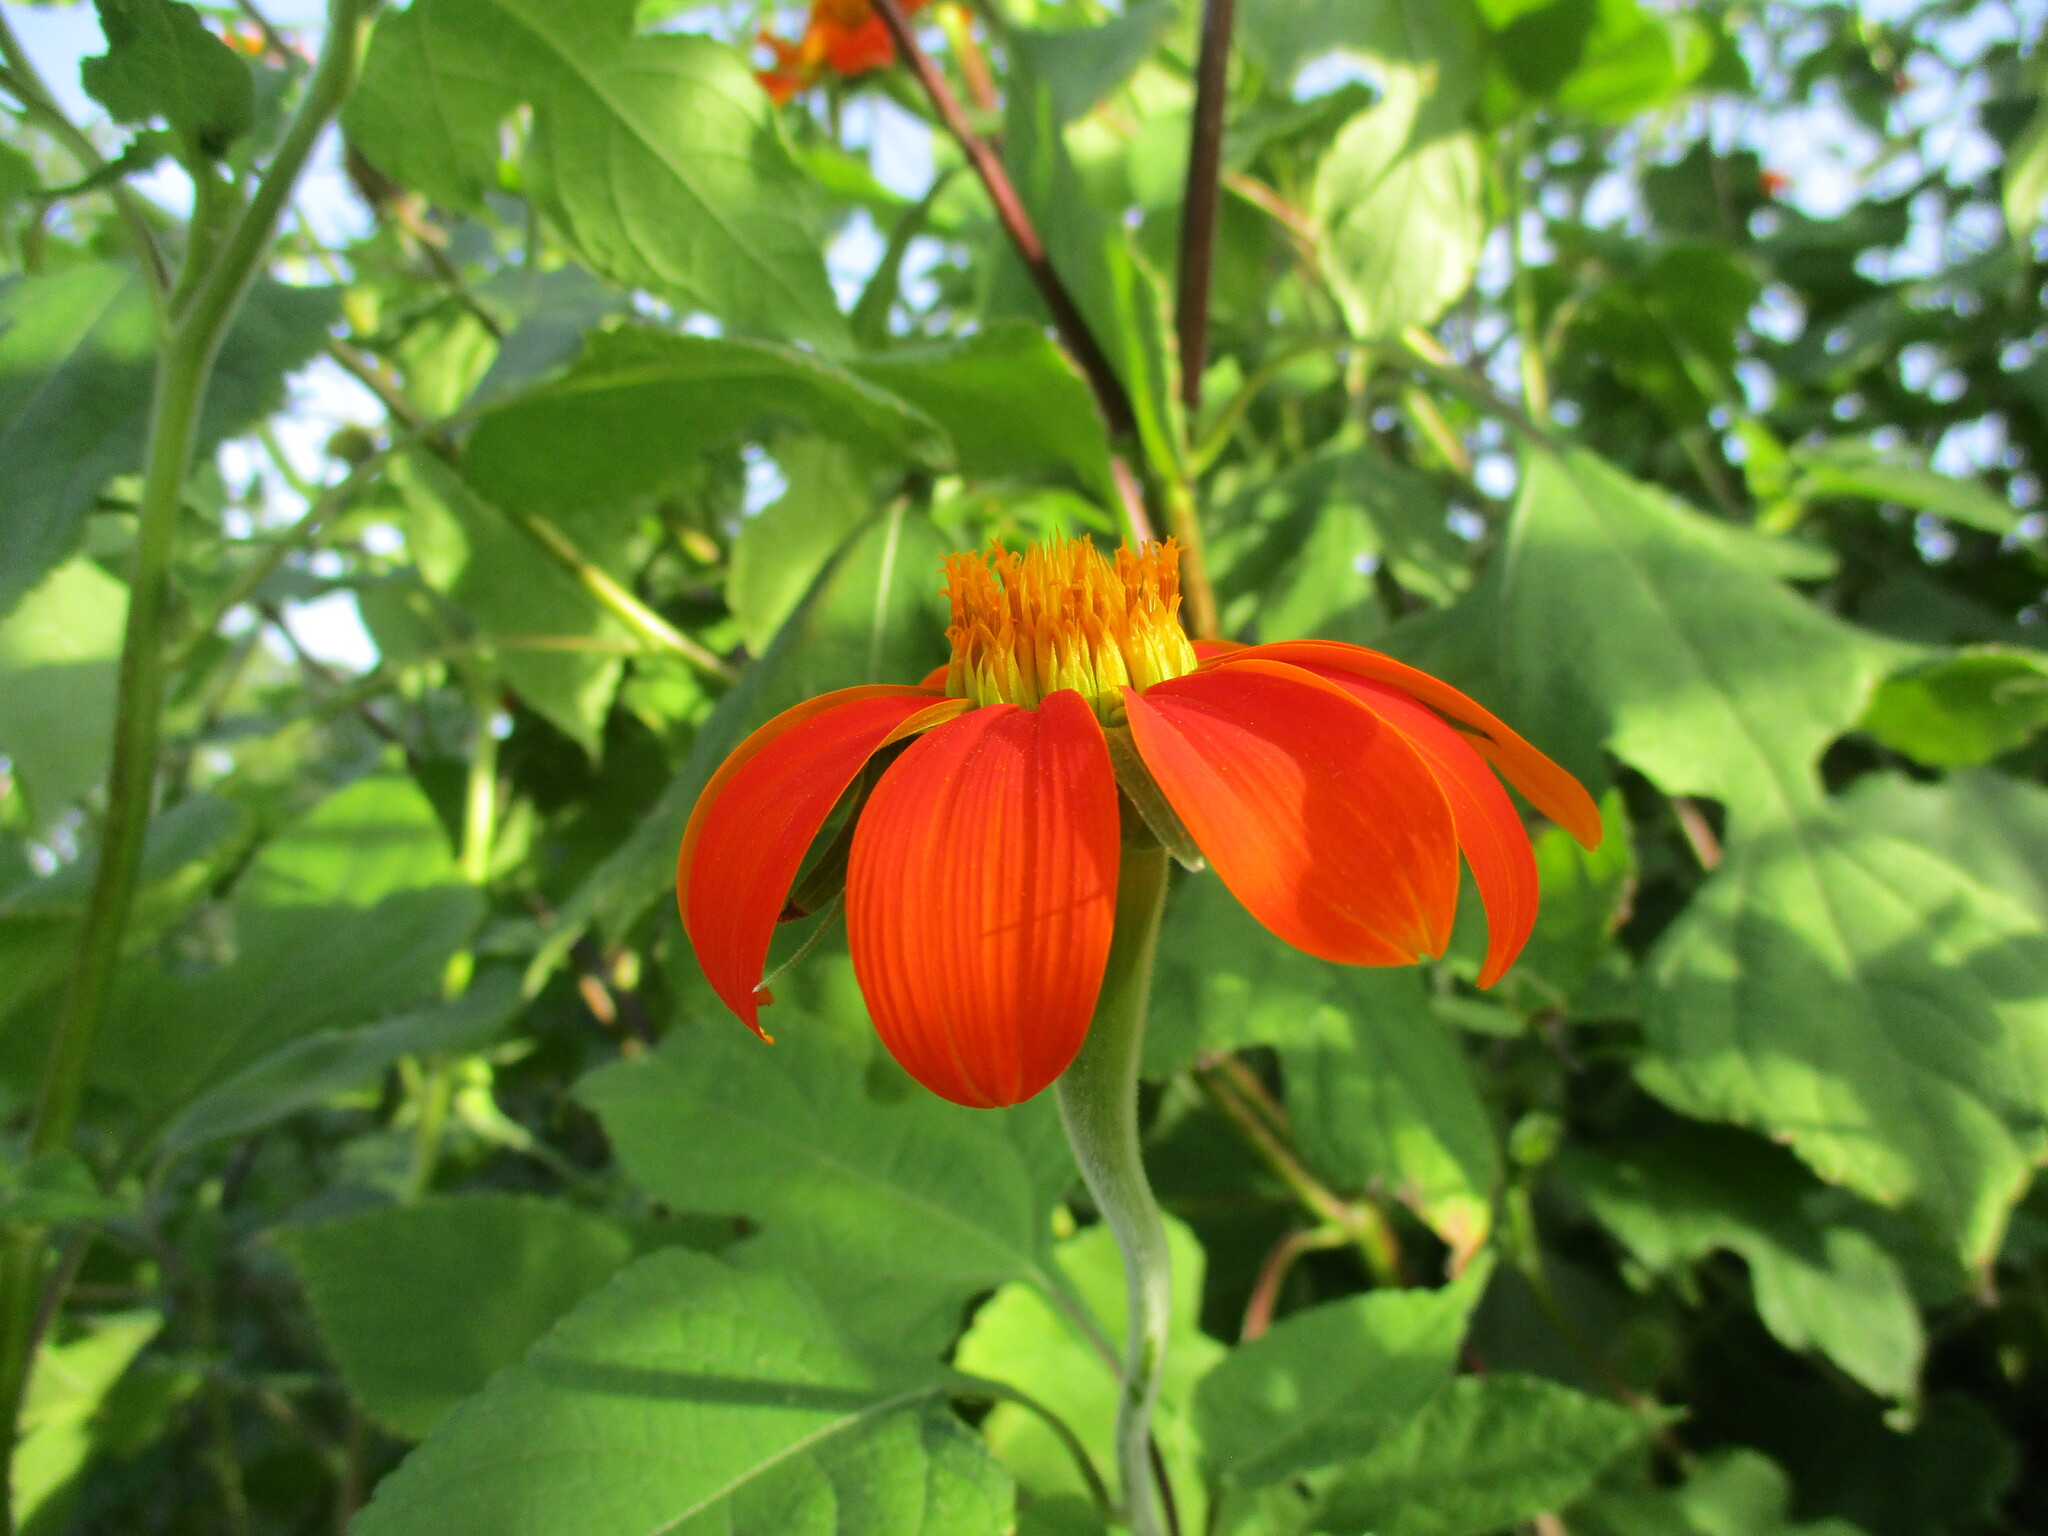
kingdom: Plantae
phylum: Tracheophyta
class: Magnoliopsida
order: Asterales
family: Asteraceae
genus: Tithonia
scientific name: Tithonia rotundifolia
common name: Sunflower
